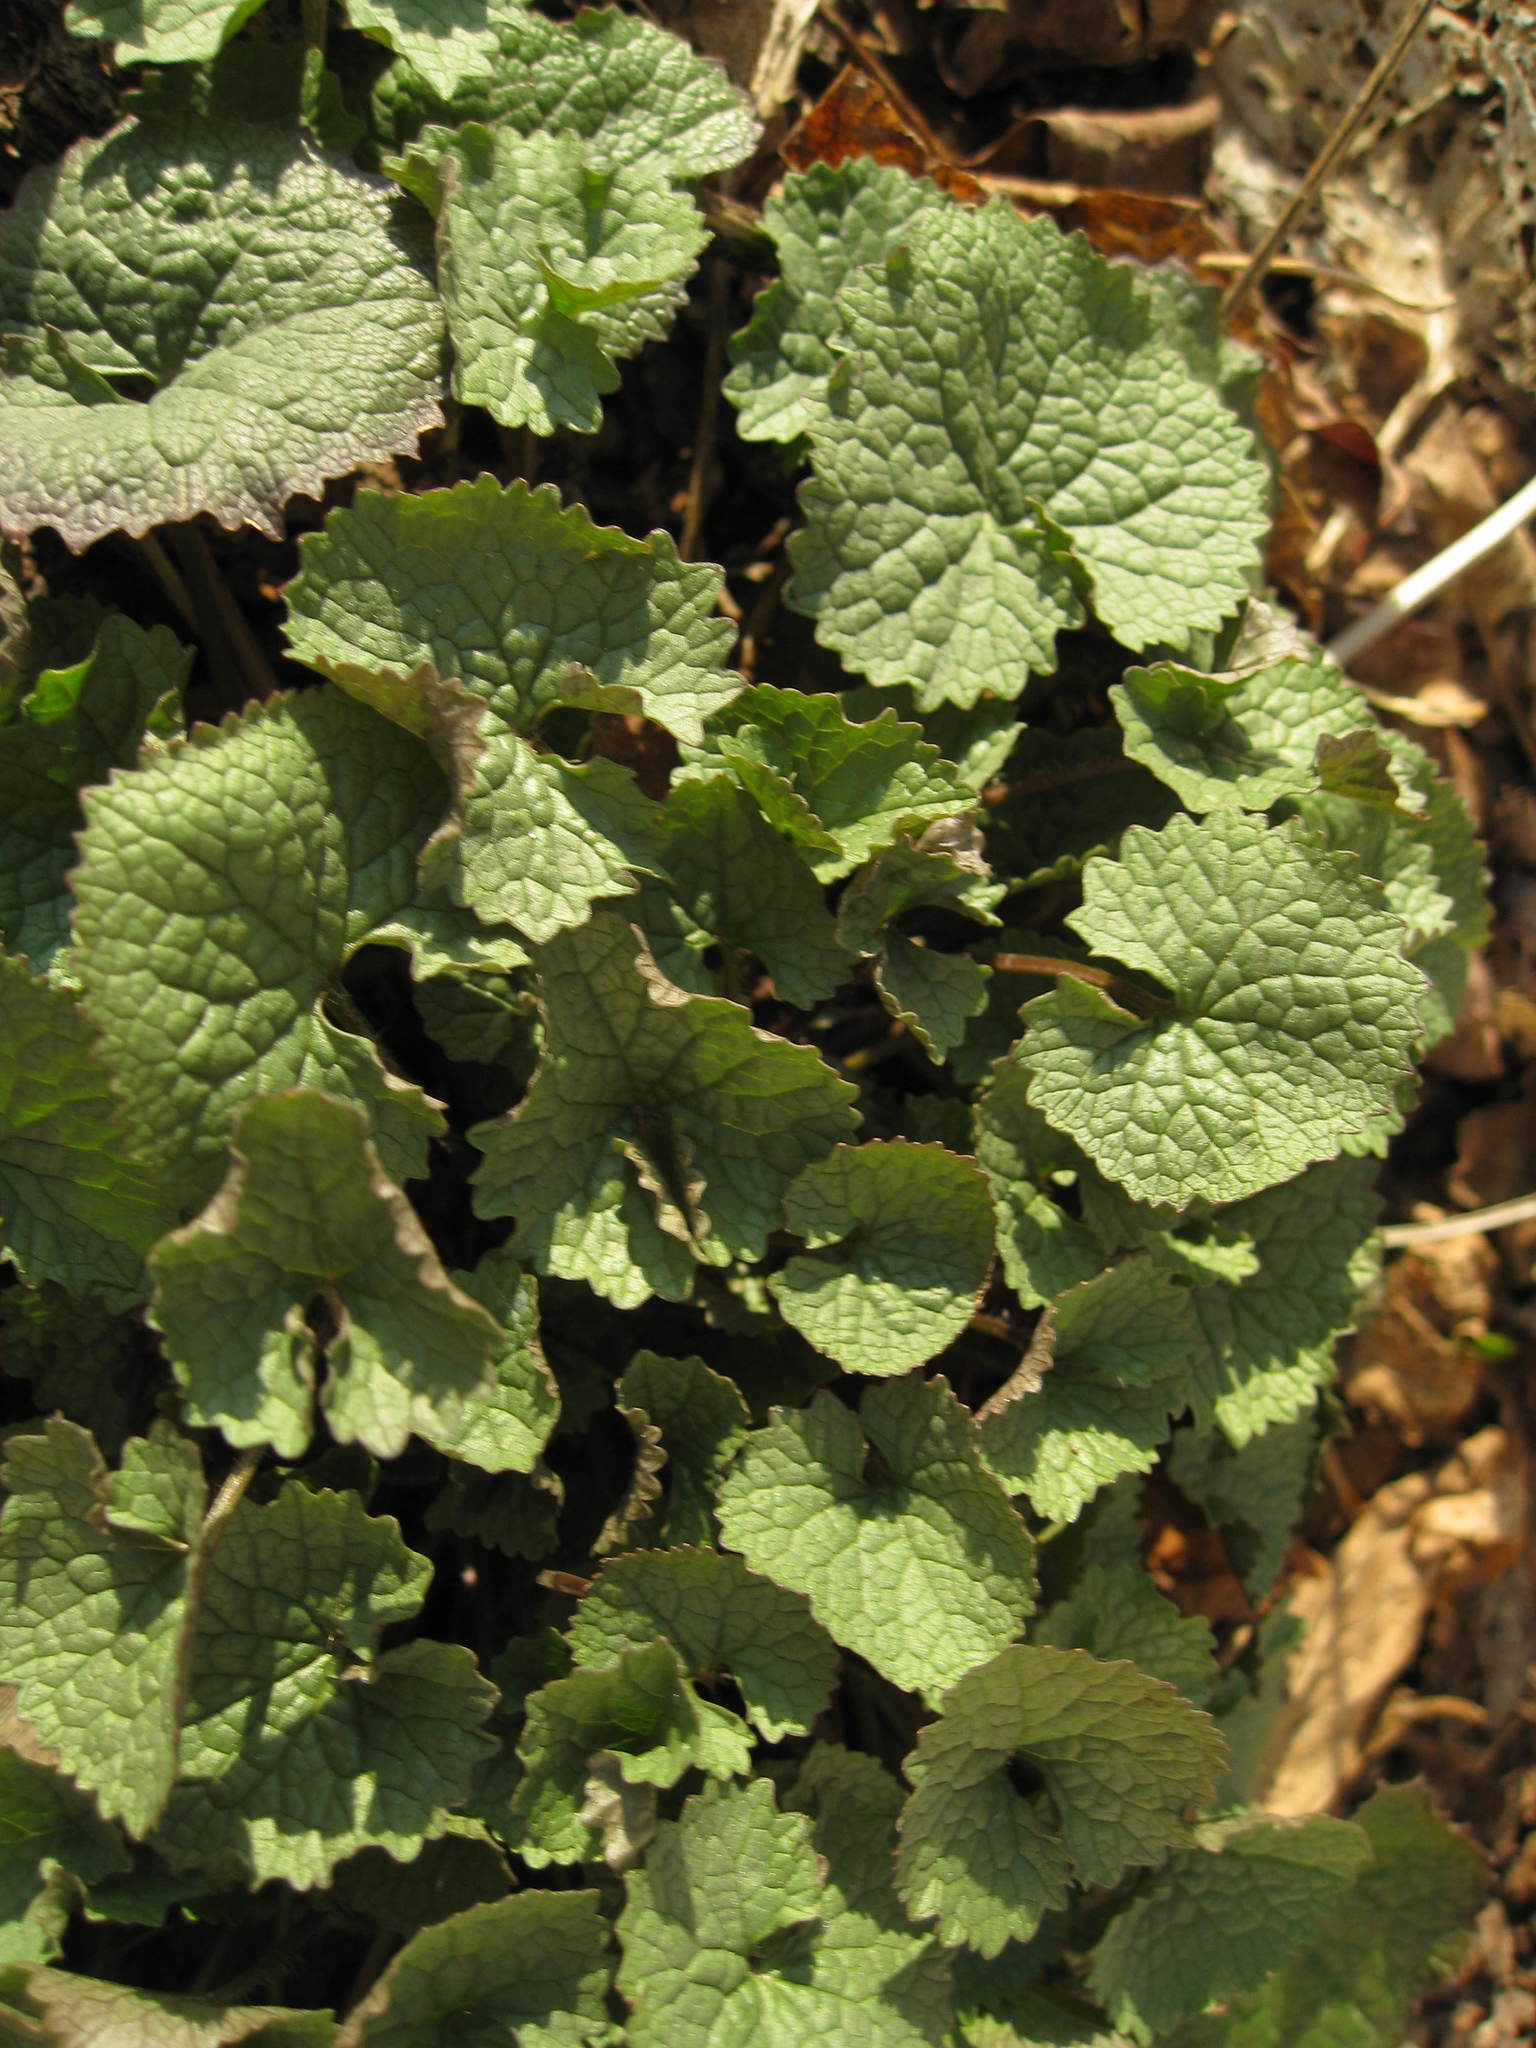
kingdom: Plantae
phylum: Tracheophyta
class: Magnoliopsida
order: Brassicales
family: Brassicaceae
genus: Alliaria
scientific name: Alliaria petiolata
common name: Garlic mustard
